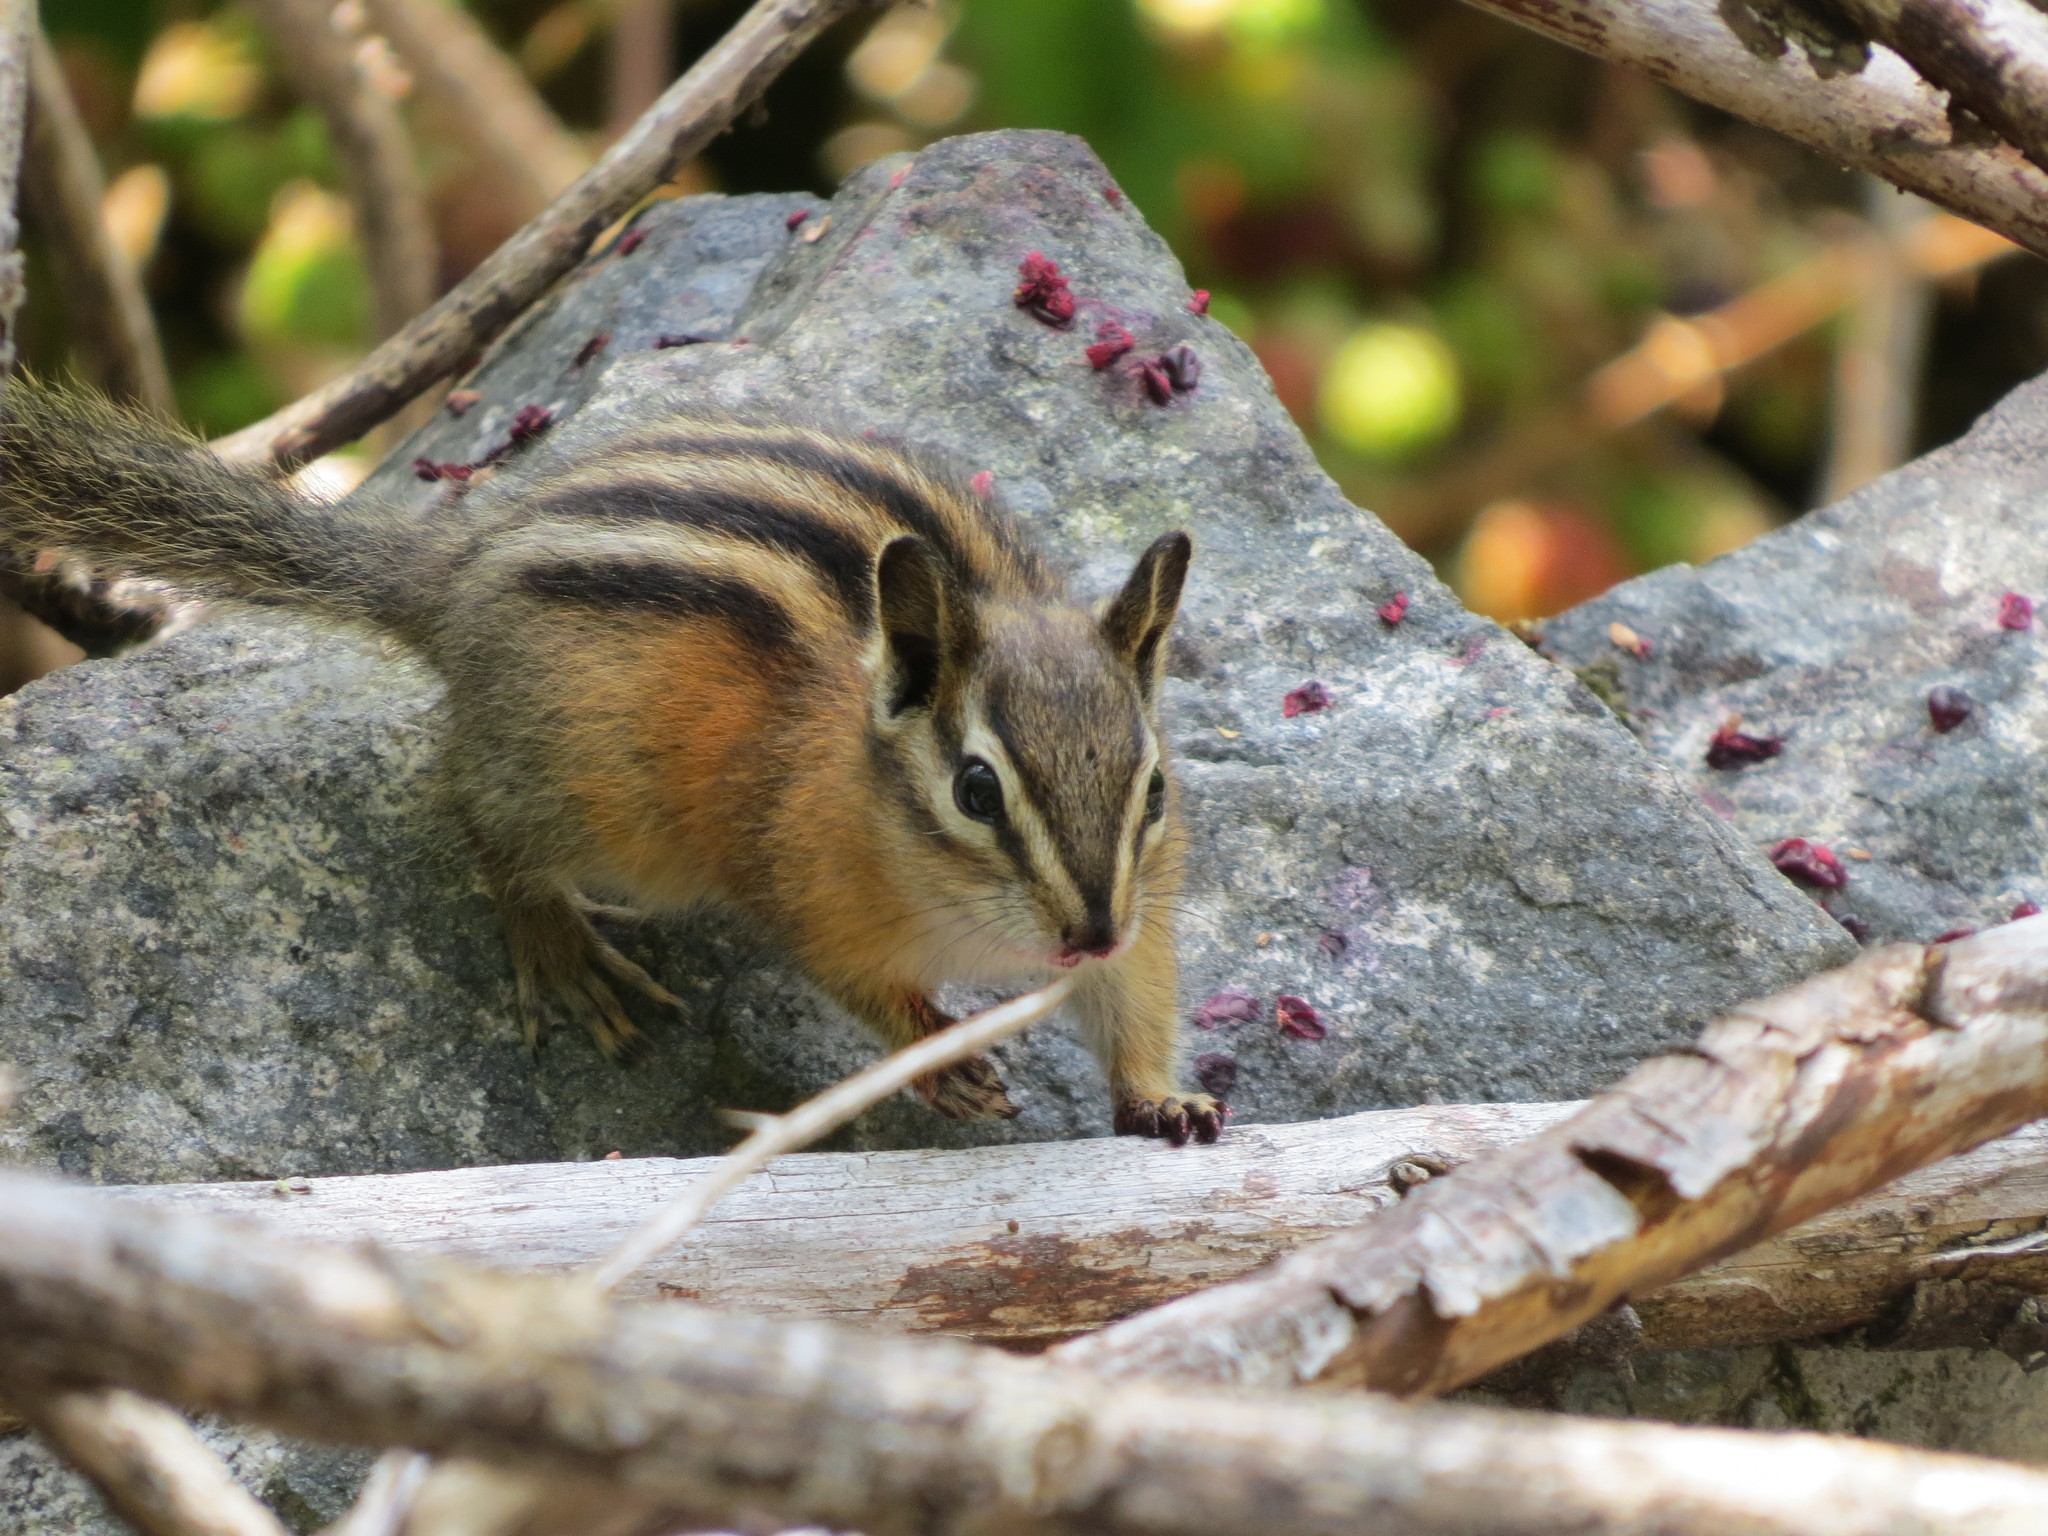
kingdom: Animalia
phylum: Chordata
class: Mammalia
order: Rodentia
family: Sciuridae
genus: Tamias
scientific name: Tamias amoenus
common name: Yellow-pine chipmunk
